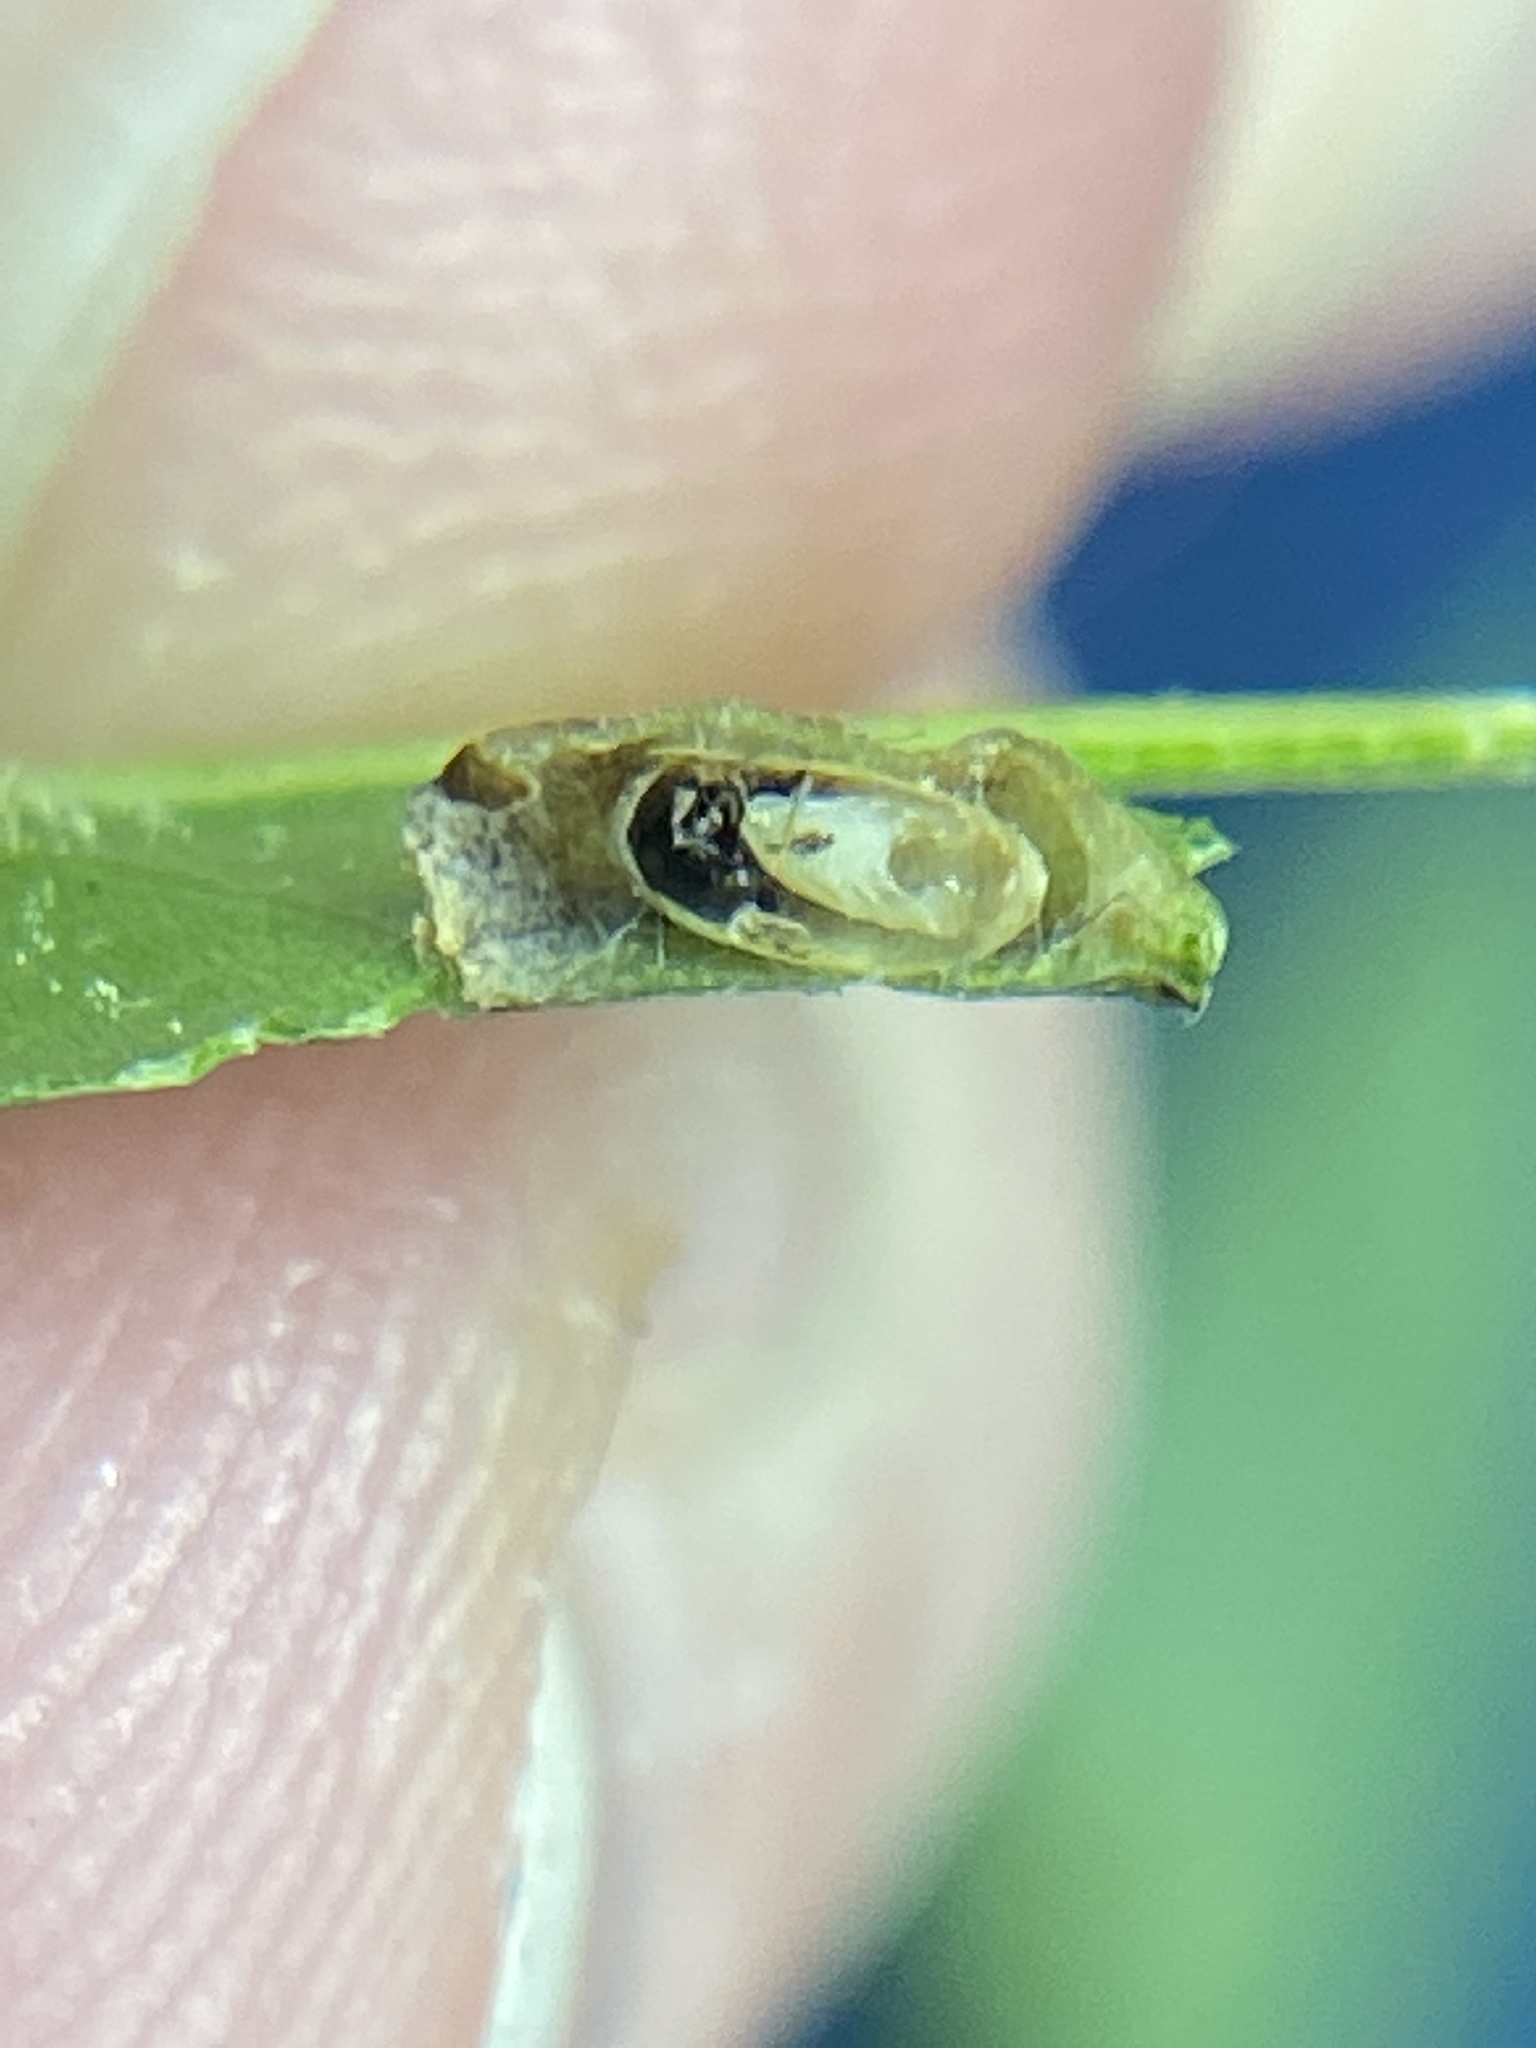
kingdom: Animalia
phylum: Arthropoda
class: Insecta
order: Hymenoptera
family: Cynipidae
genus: Dryocosmus
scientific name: Dryocosmus
